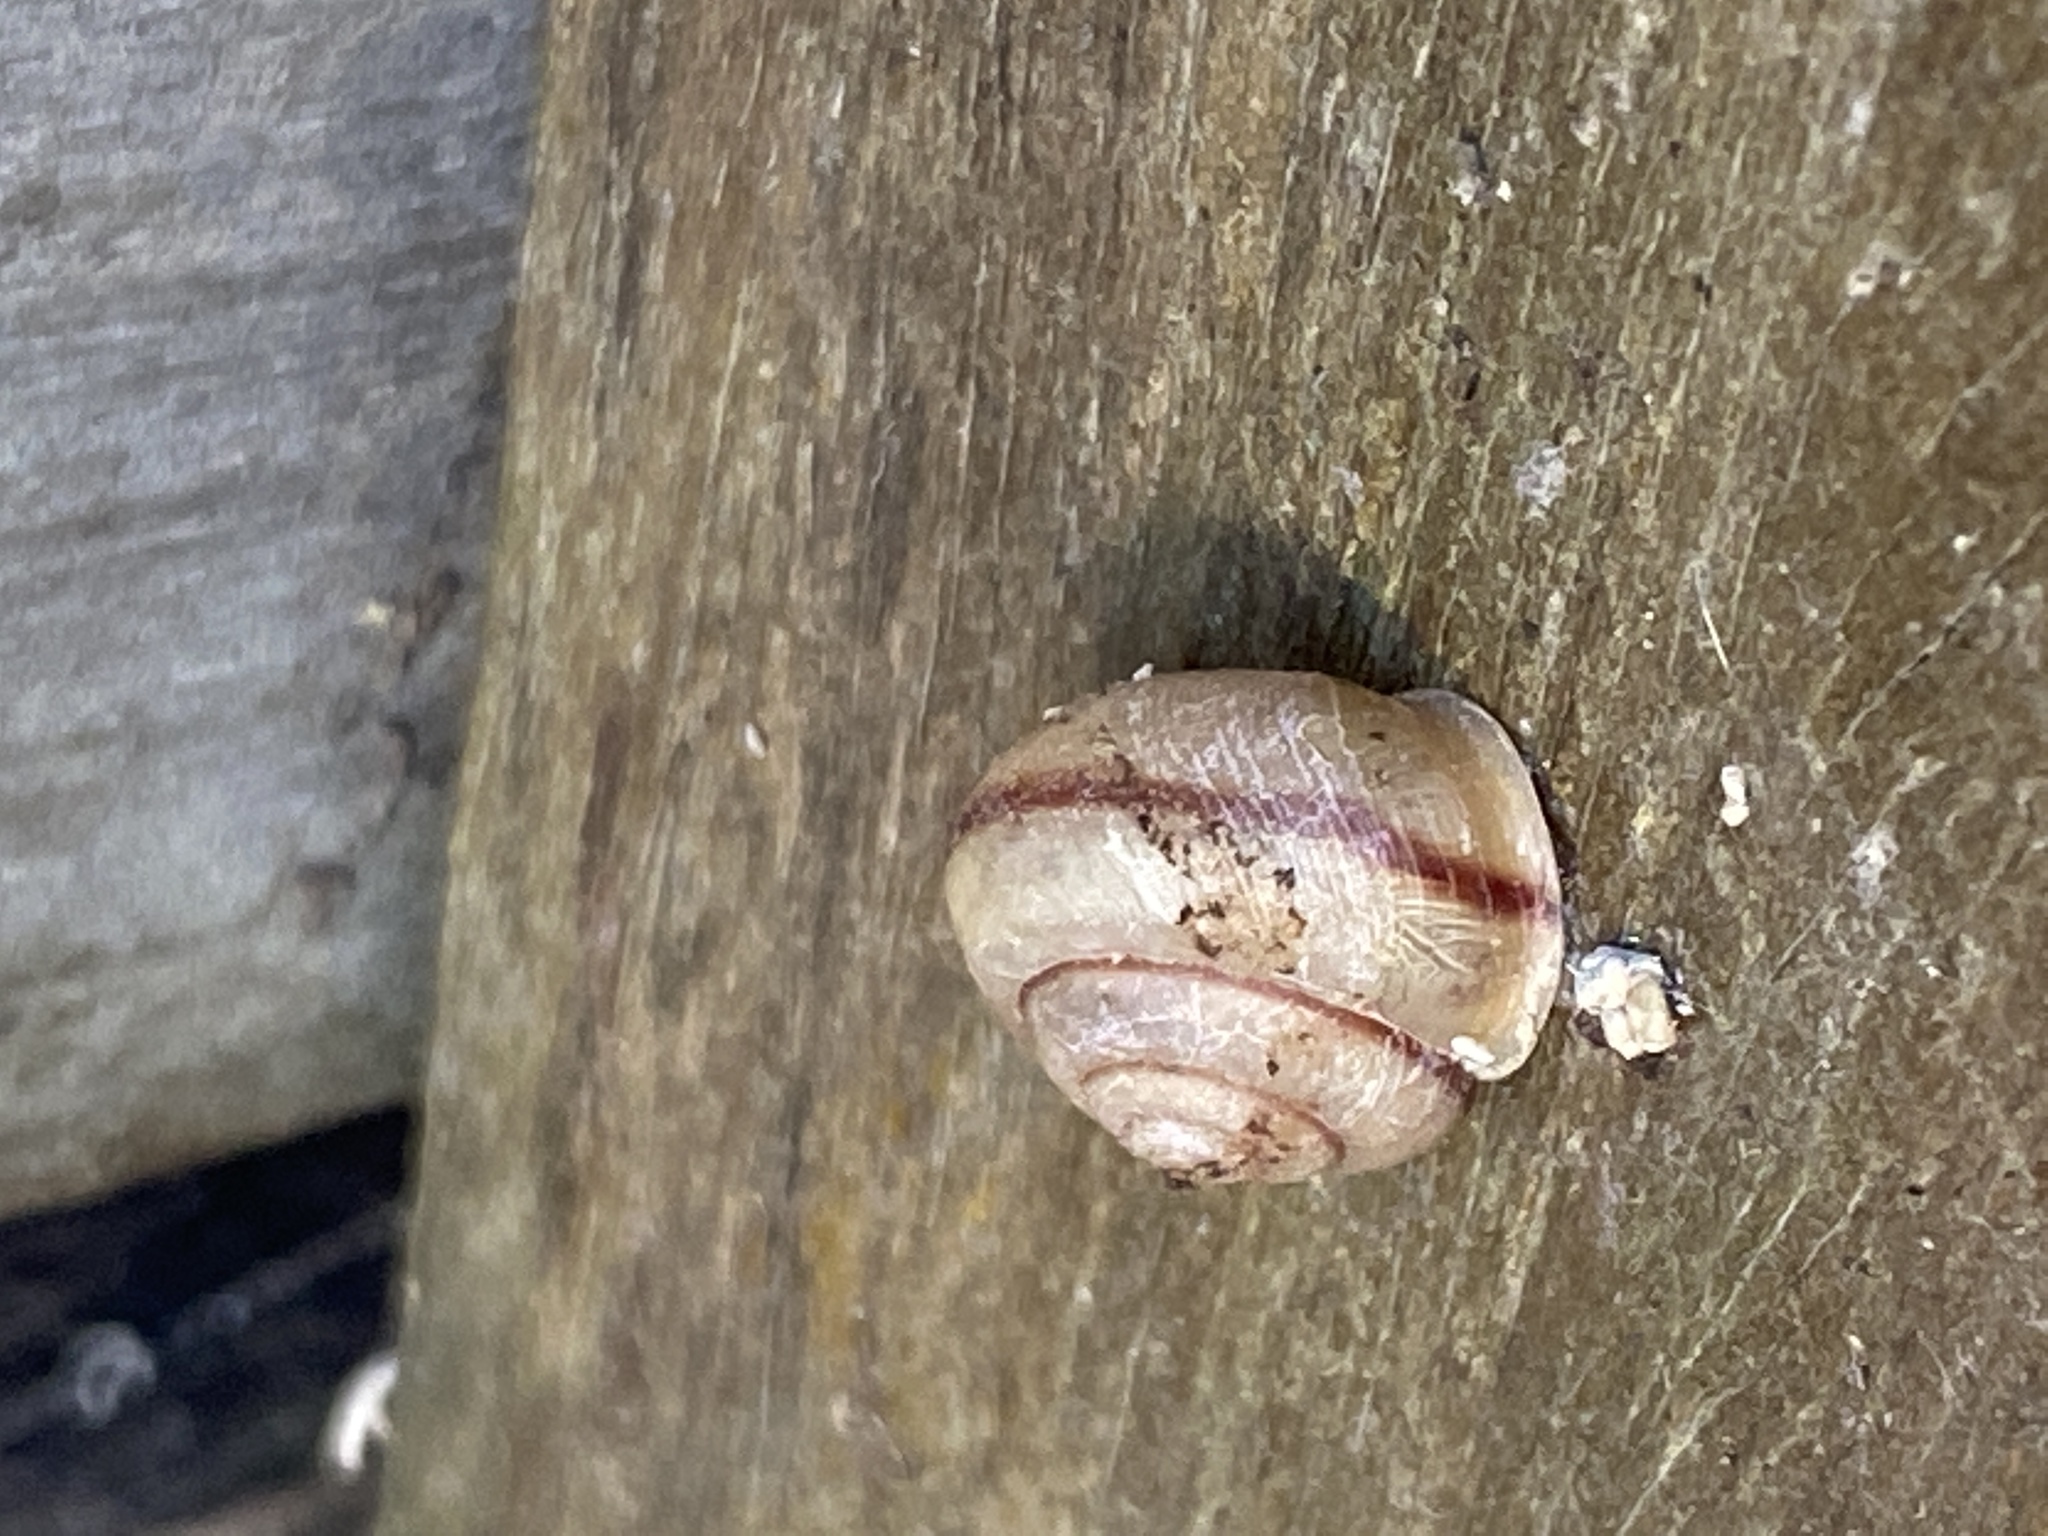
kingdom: Animalia
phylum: Mollusca
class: Gastropoda
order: Stylommatophora
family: Camaenidae
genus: Bradybaena
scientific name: Bradybaena similaris
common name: Asian trampsnail
